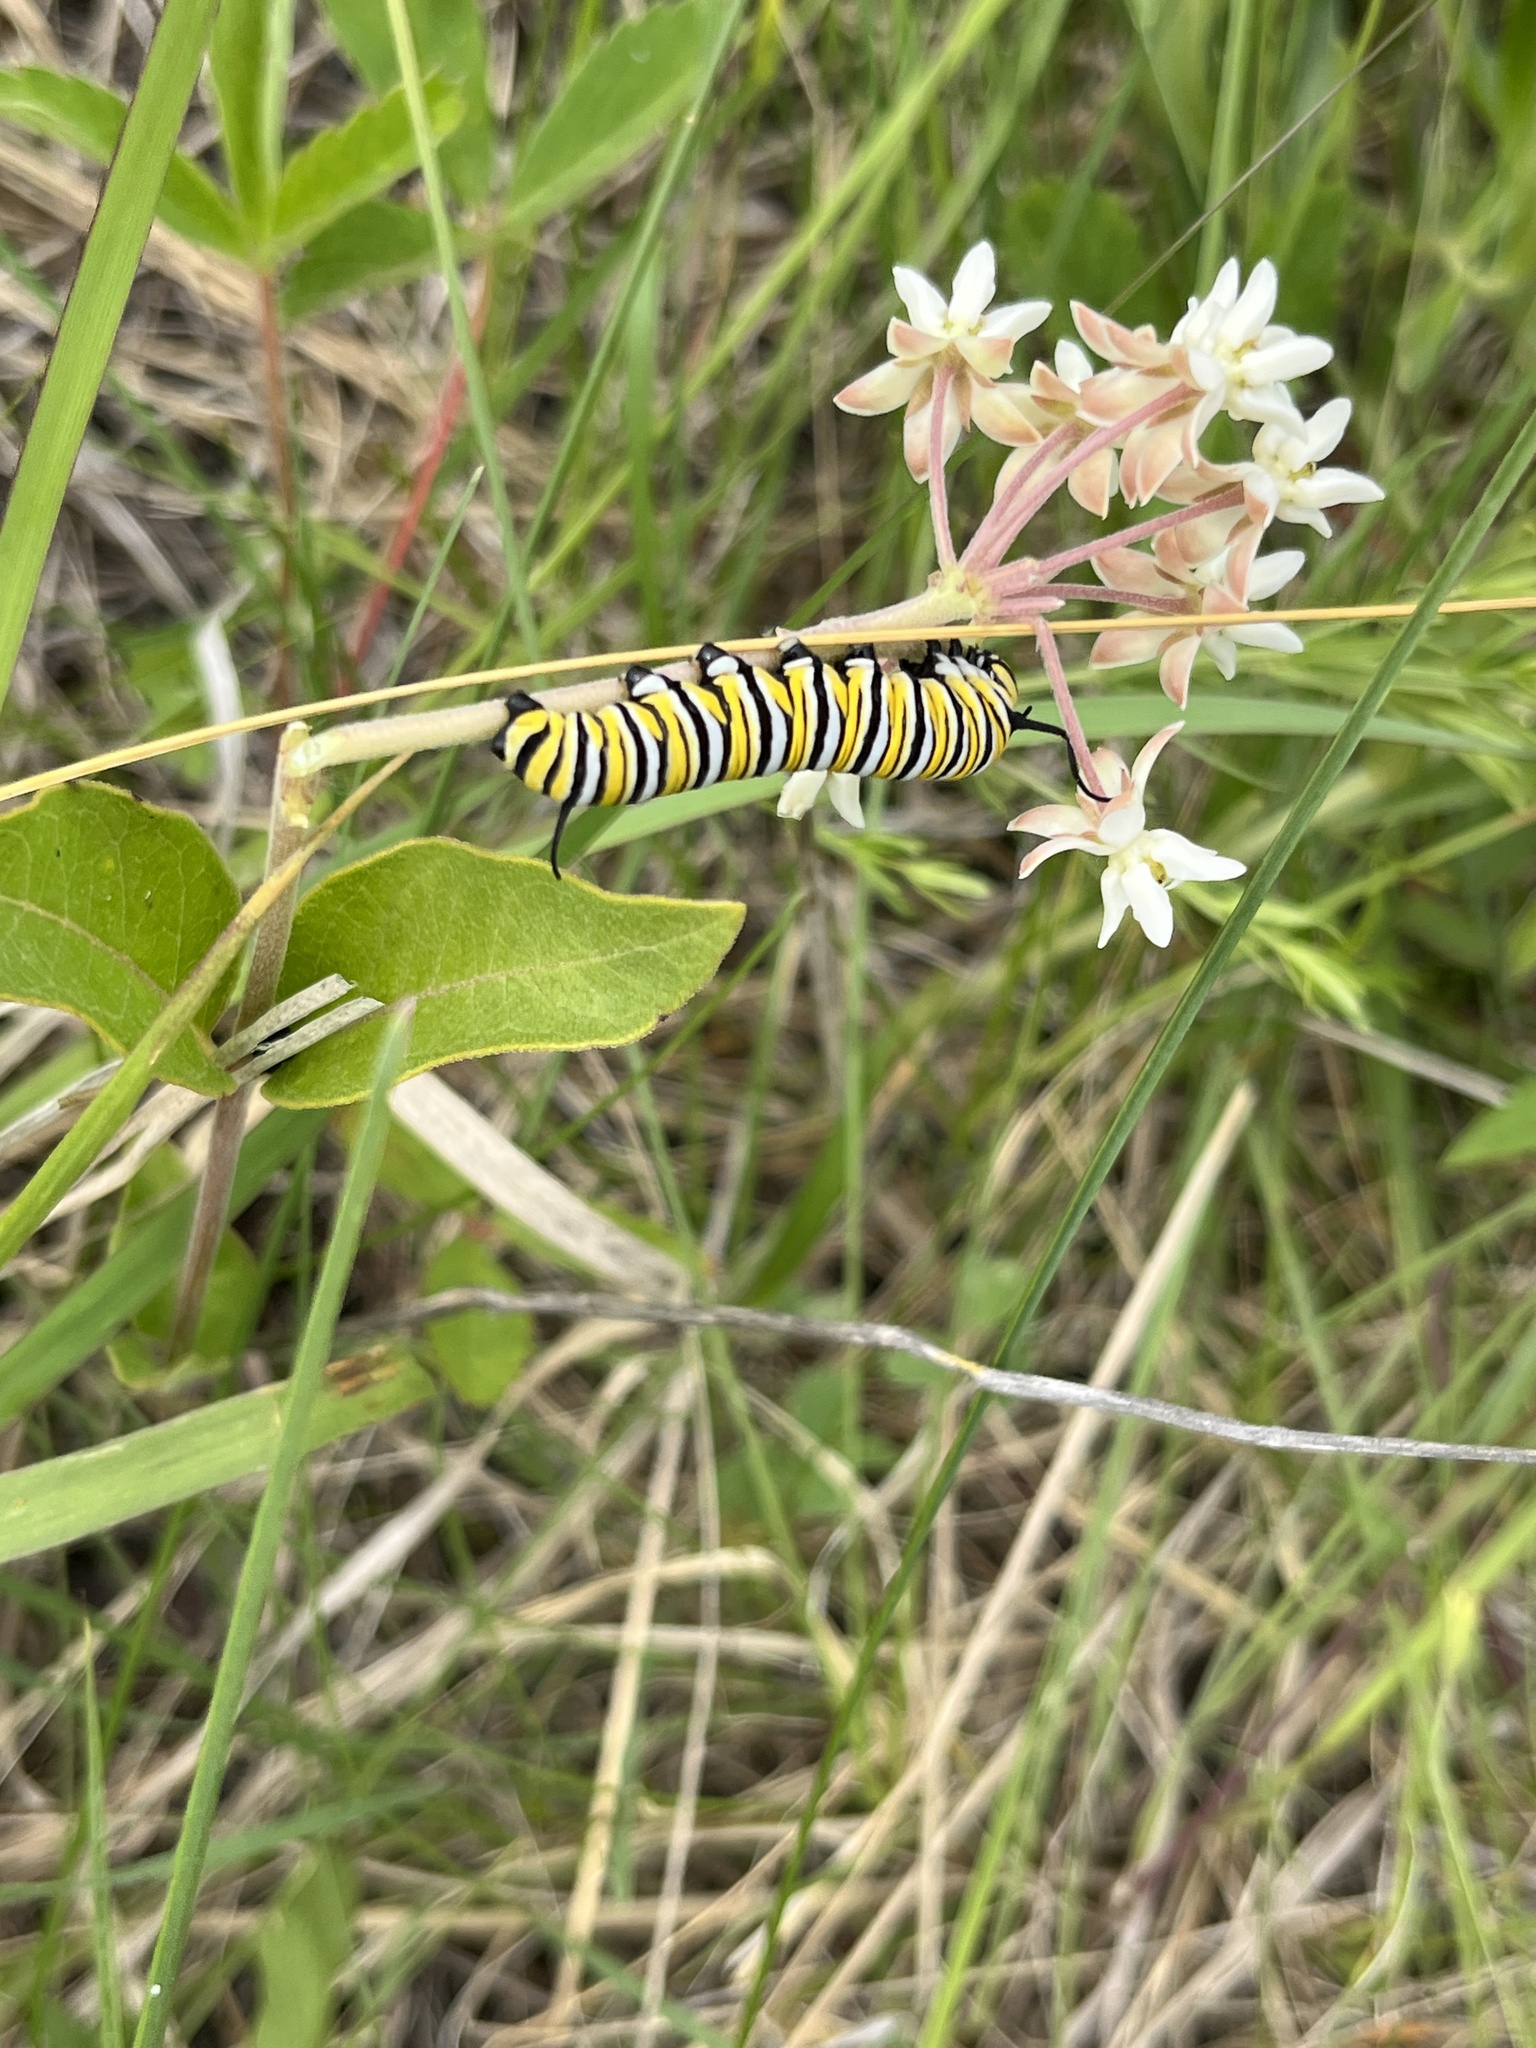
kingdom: Animalia
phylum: Arthropoda
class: Insecta
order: Lepidoptera
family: Nymphalidae
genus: Danaus
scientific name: Danaus plexippus
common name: Monarch
